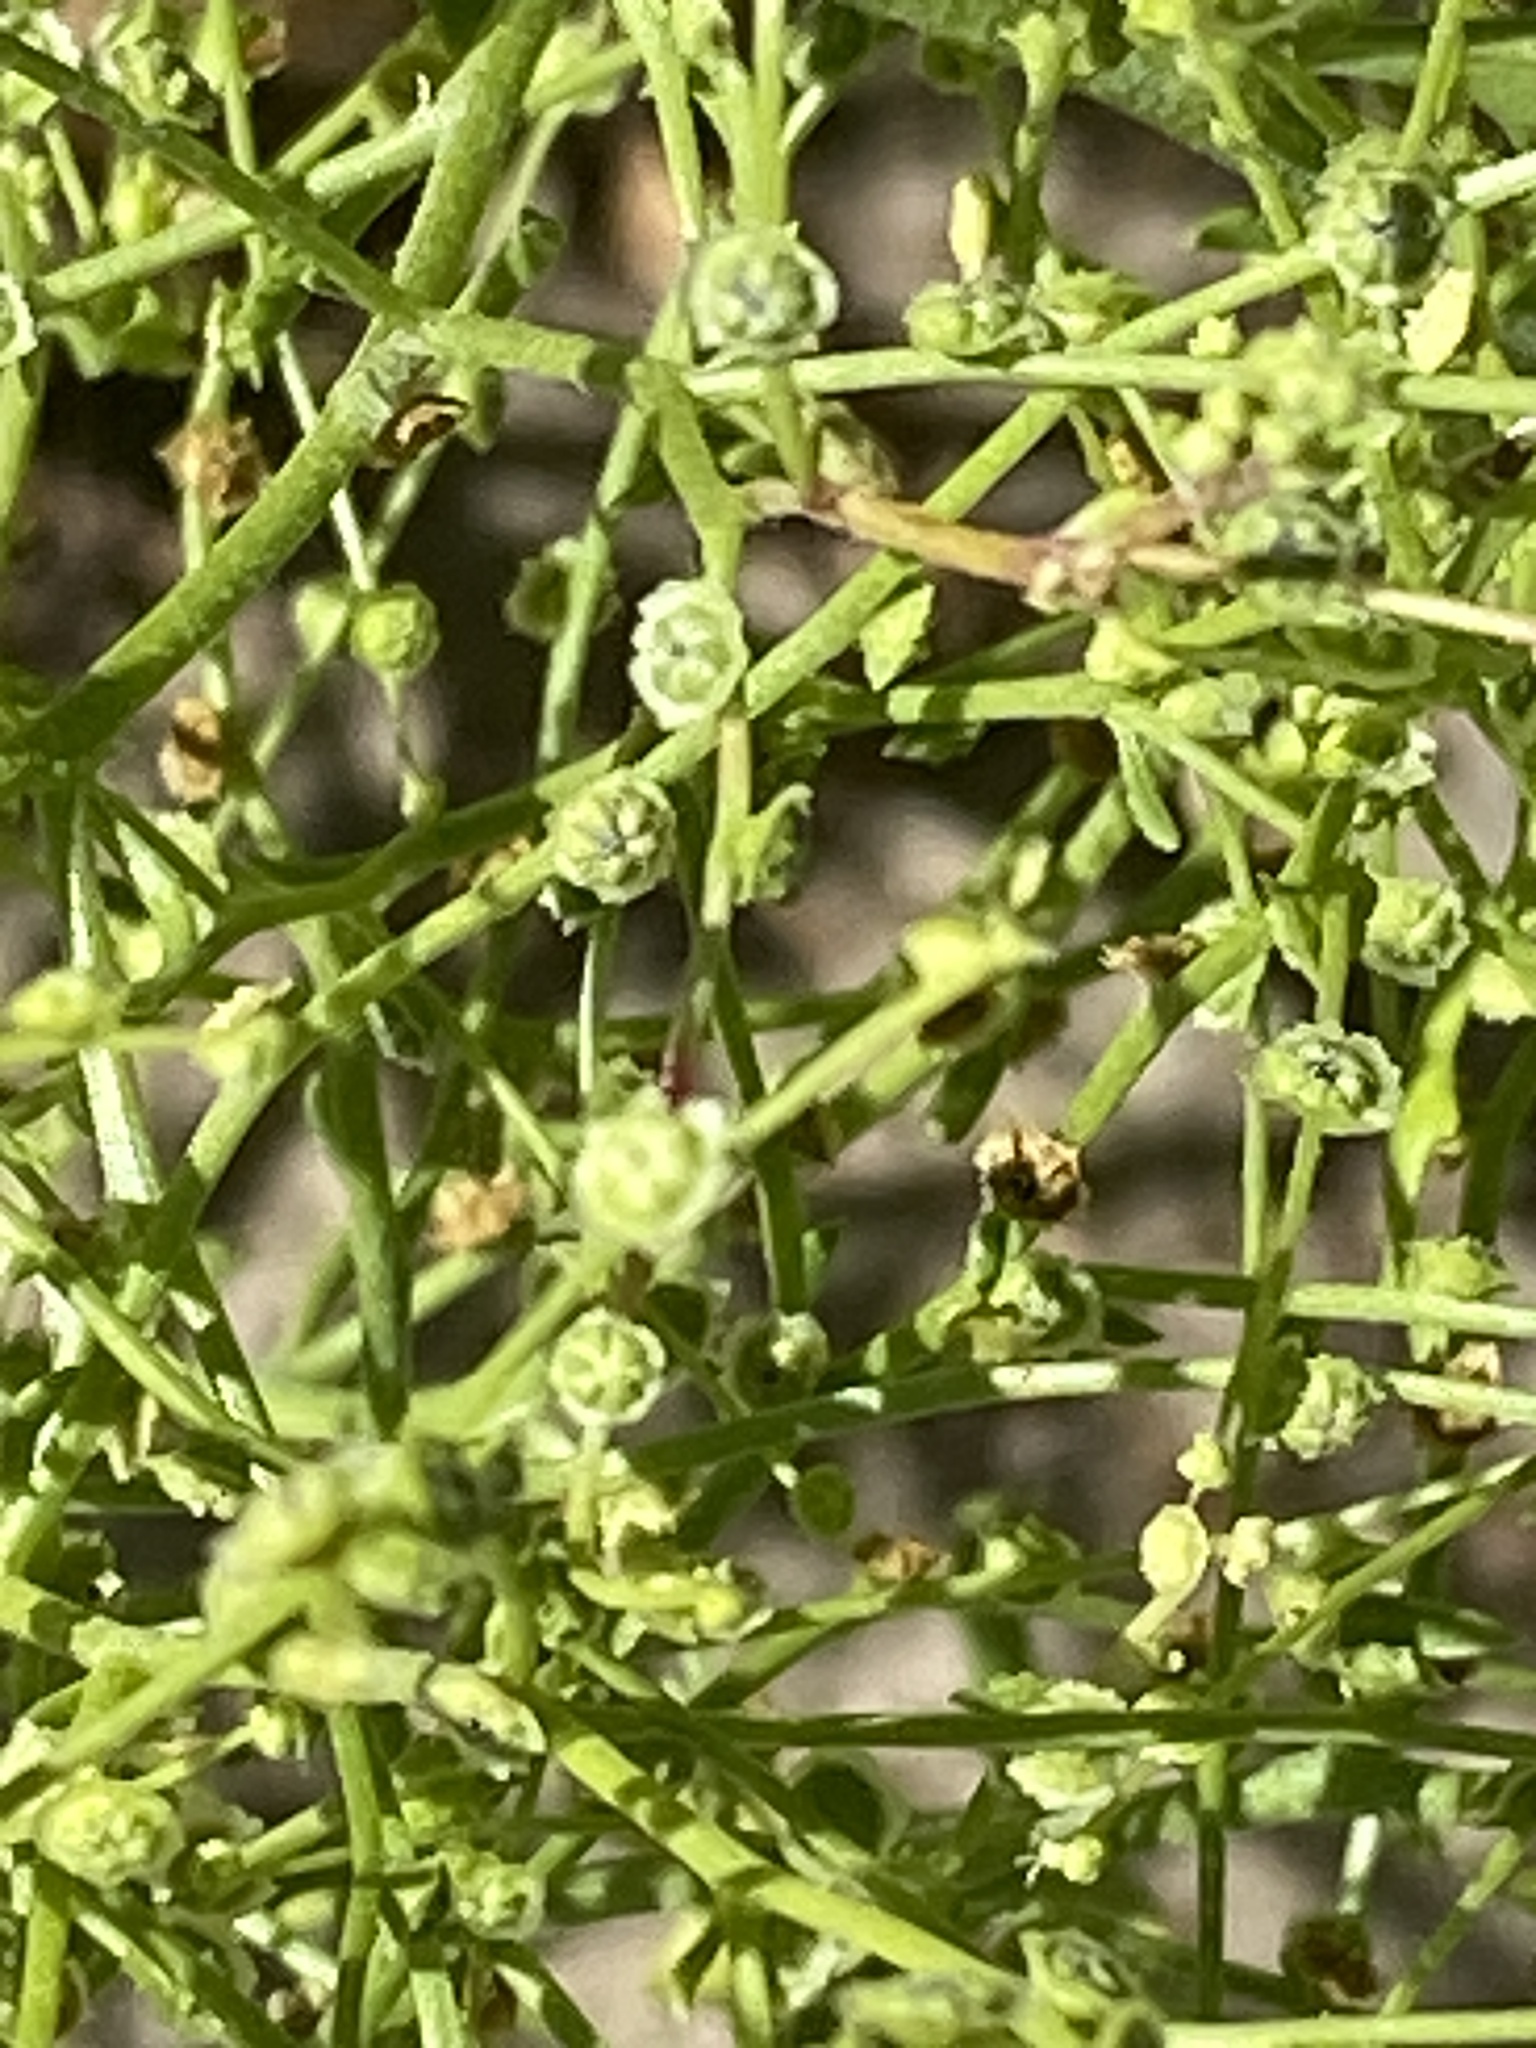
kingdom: Plantae
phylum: Tracheophyta
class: Magnoliopsida
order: Caryophyllales
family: Amaranthaceae
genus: Dysphania
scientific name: Dysphania atriplicifolia
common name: Plains tumbleweed
